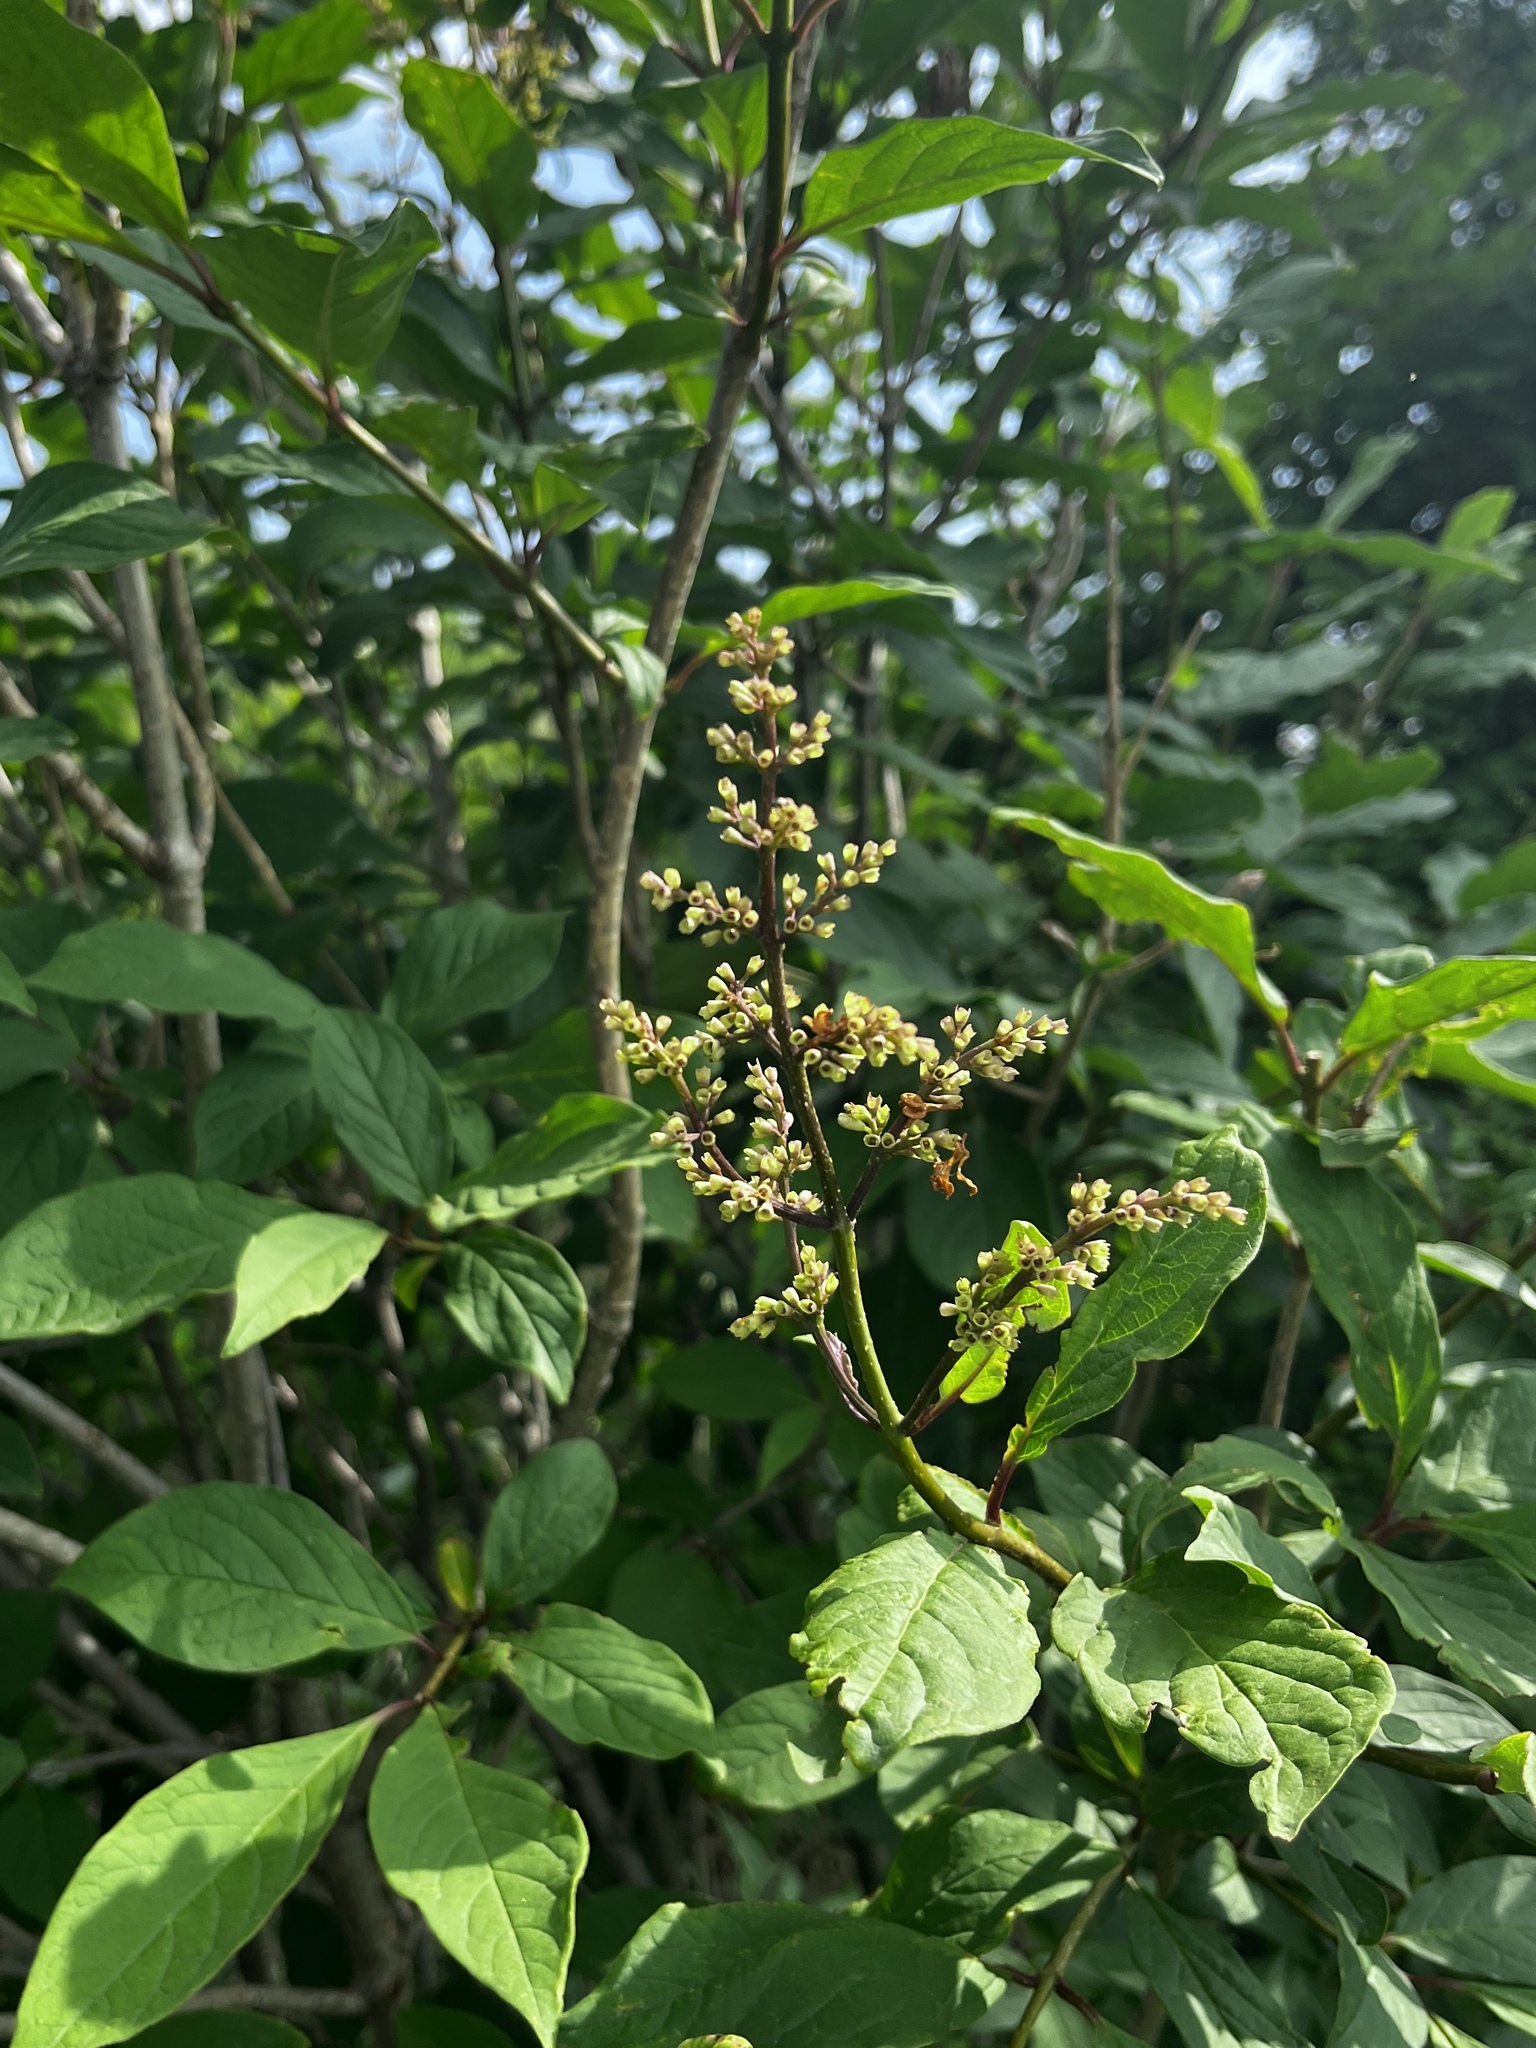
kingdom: Plantae
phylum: Tracheophyta
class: Magnoliopsida
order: Lamiales
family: Oleaceae
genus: Syringa
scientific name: Syringa villosa
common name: Villous lilac
